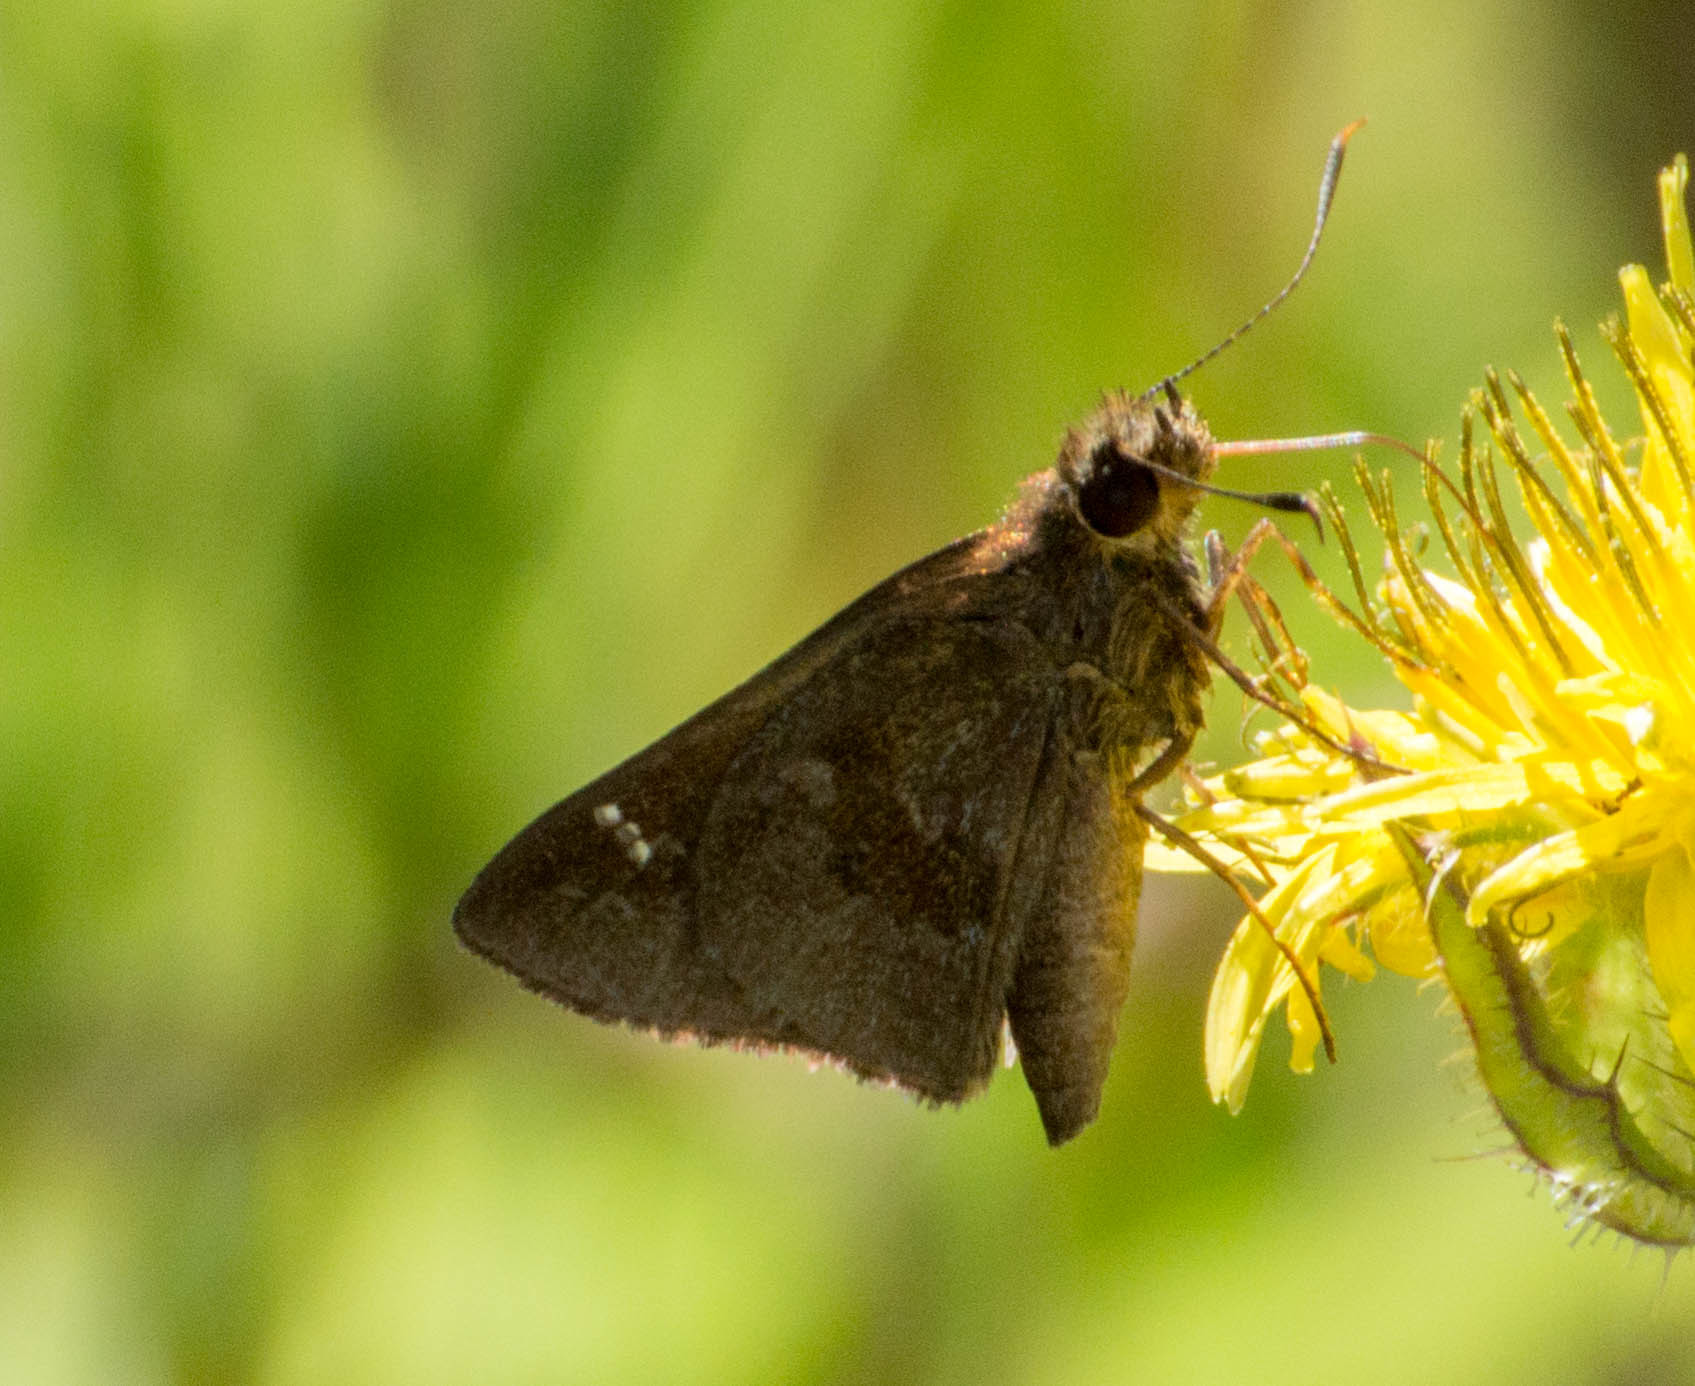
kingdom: Animalia
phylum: Arthropoda
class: Insecta
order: Lepidoptera
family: Hesperiidae
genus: Cymaenes
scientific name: Cymaenes
